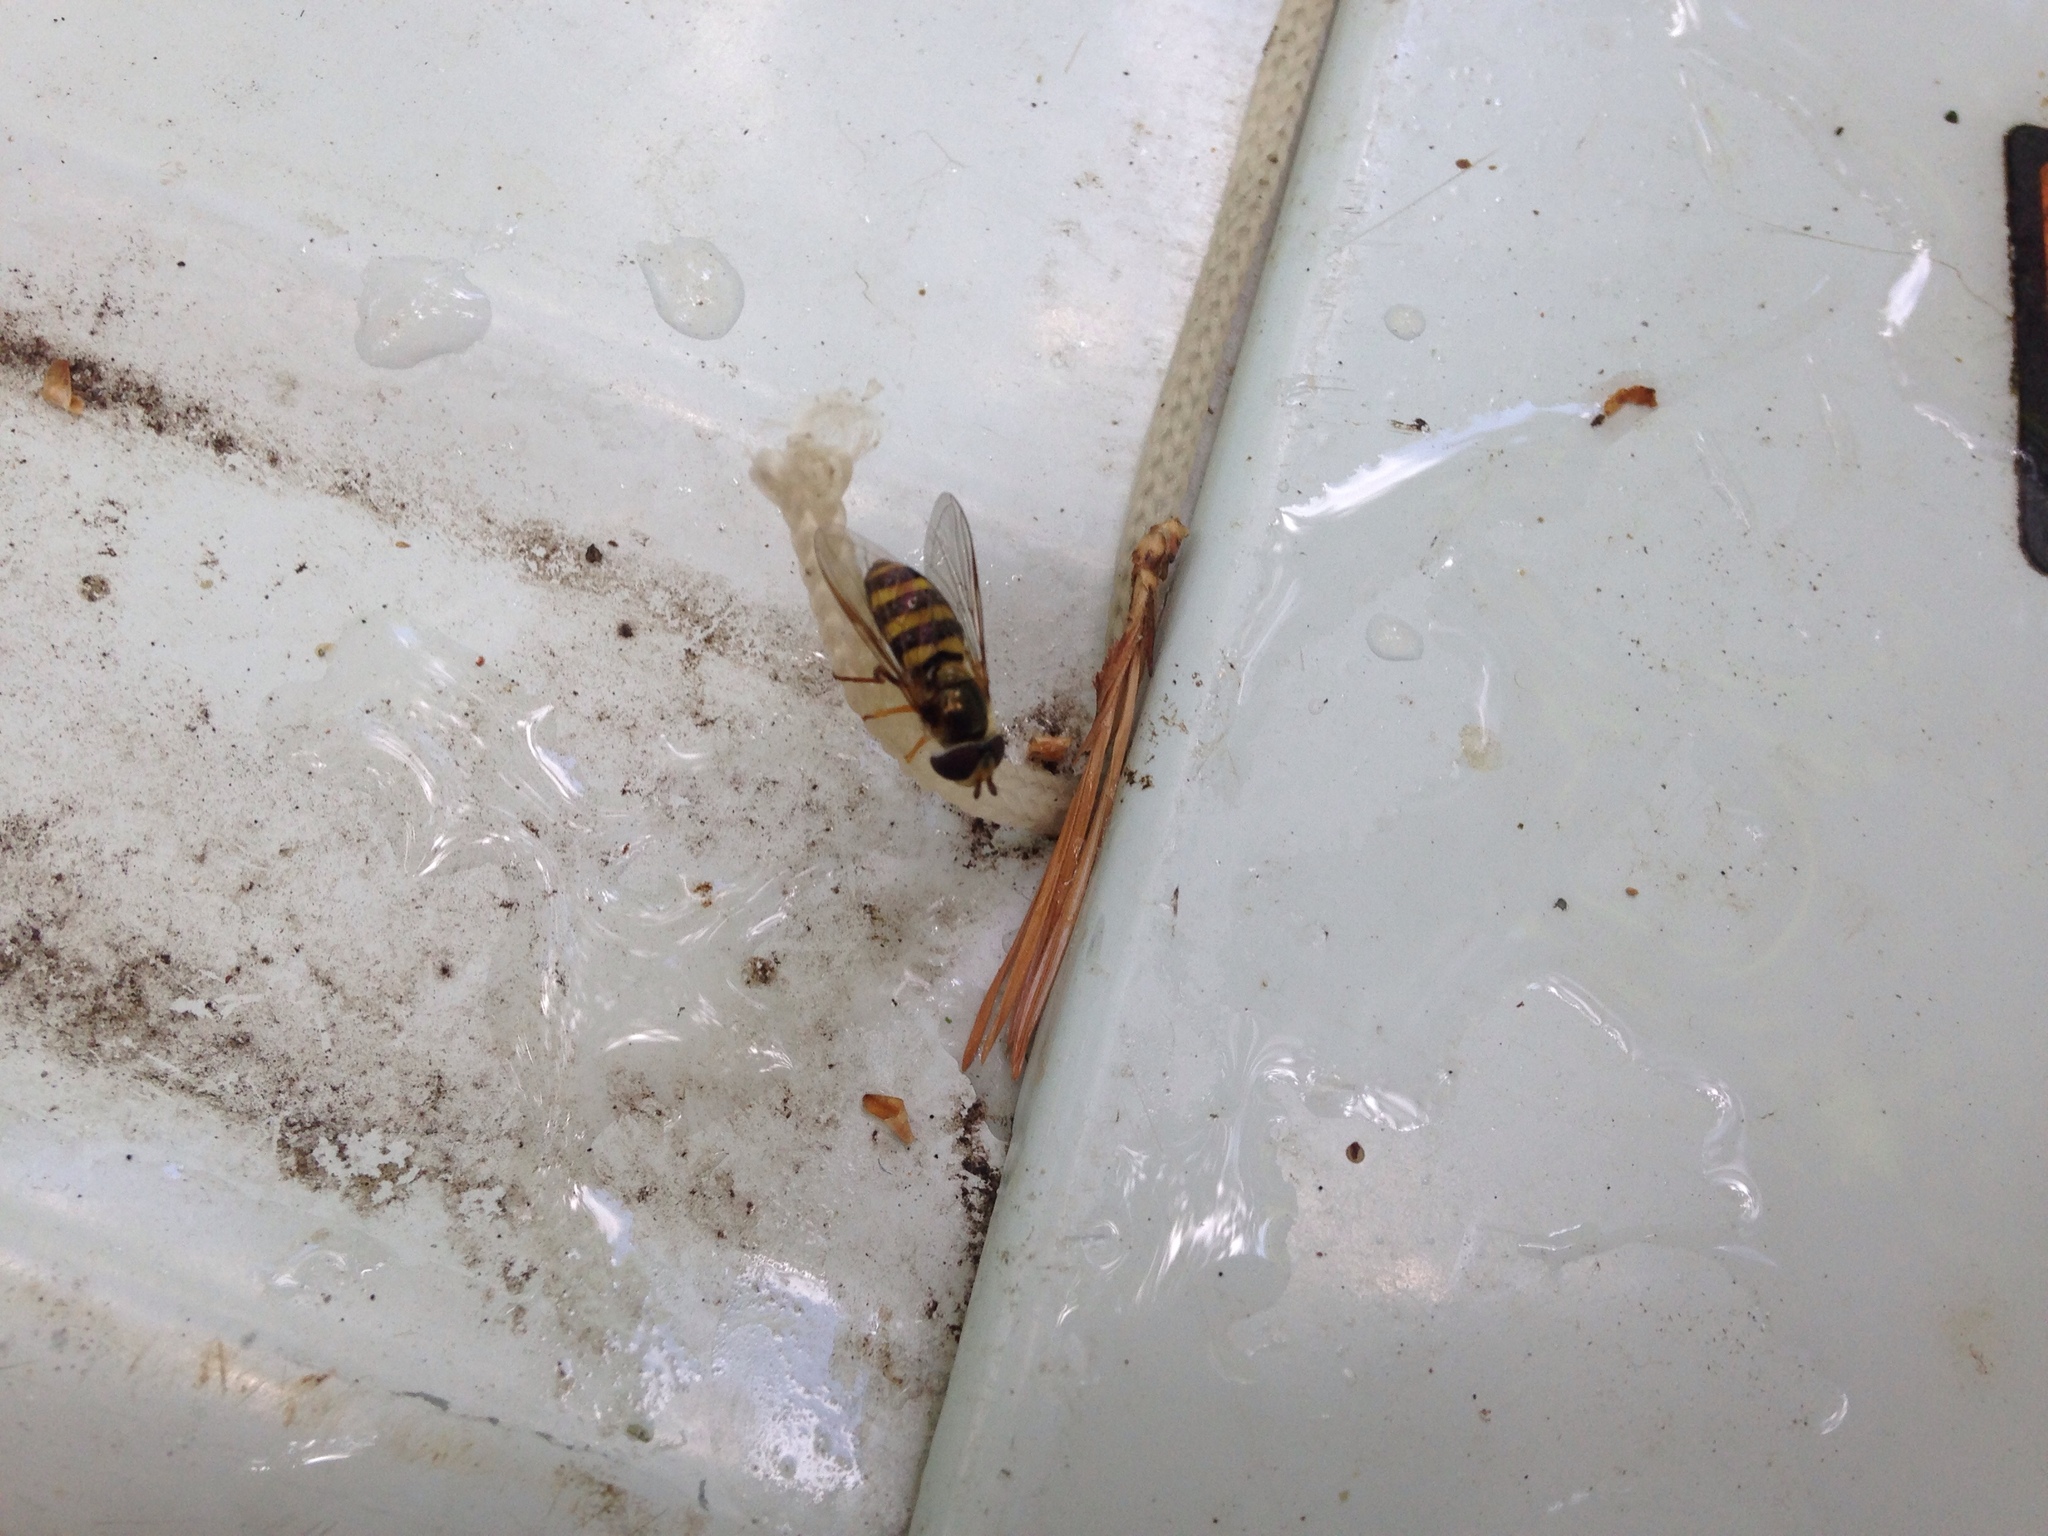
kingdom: Animalia
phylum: Arthropoda
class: Insecta
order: Diptera
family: Syrphidae
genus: Eupeodes
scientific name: Eupeodes
